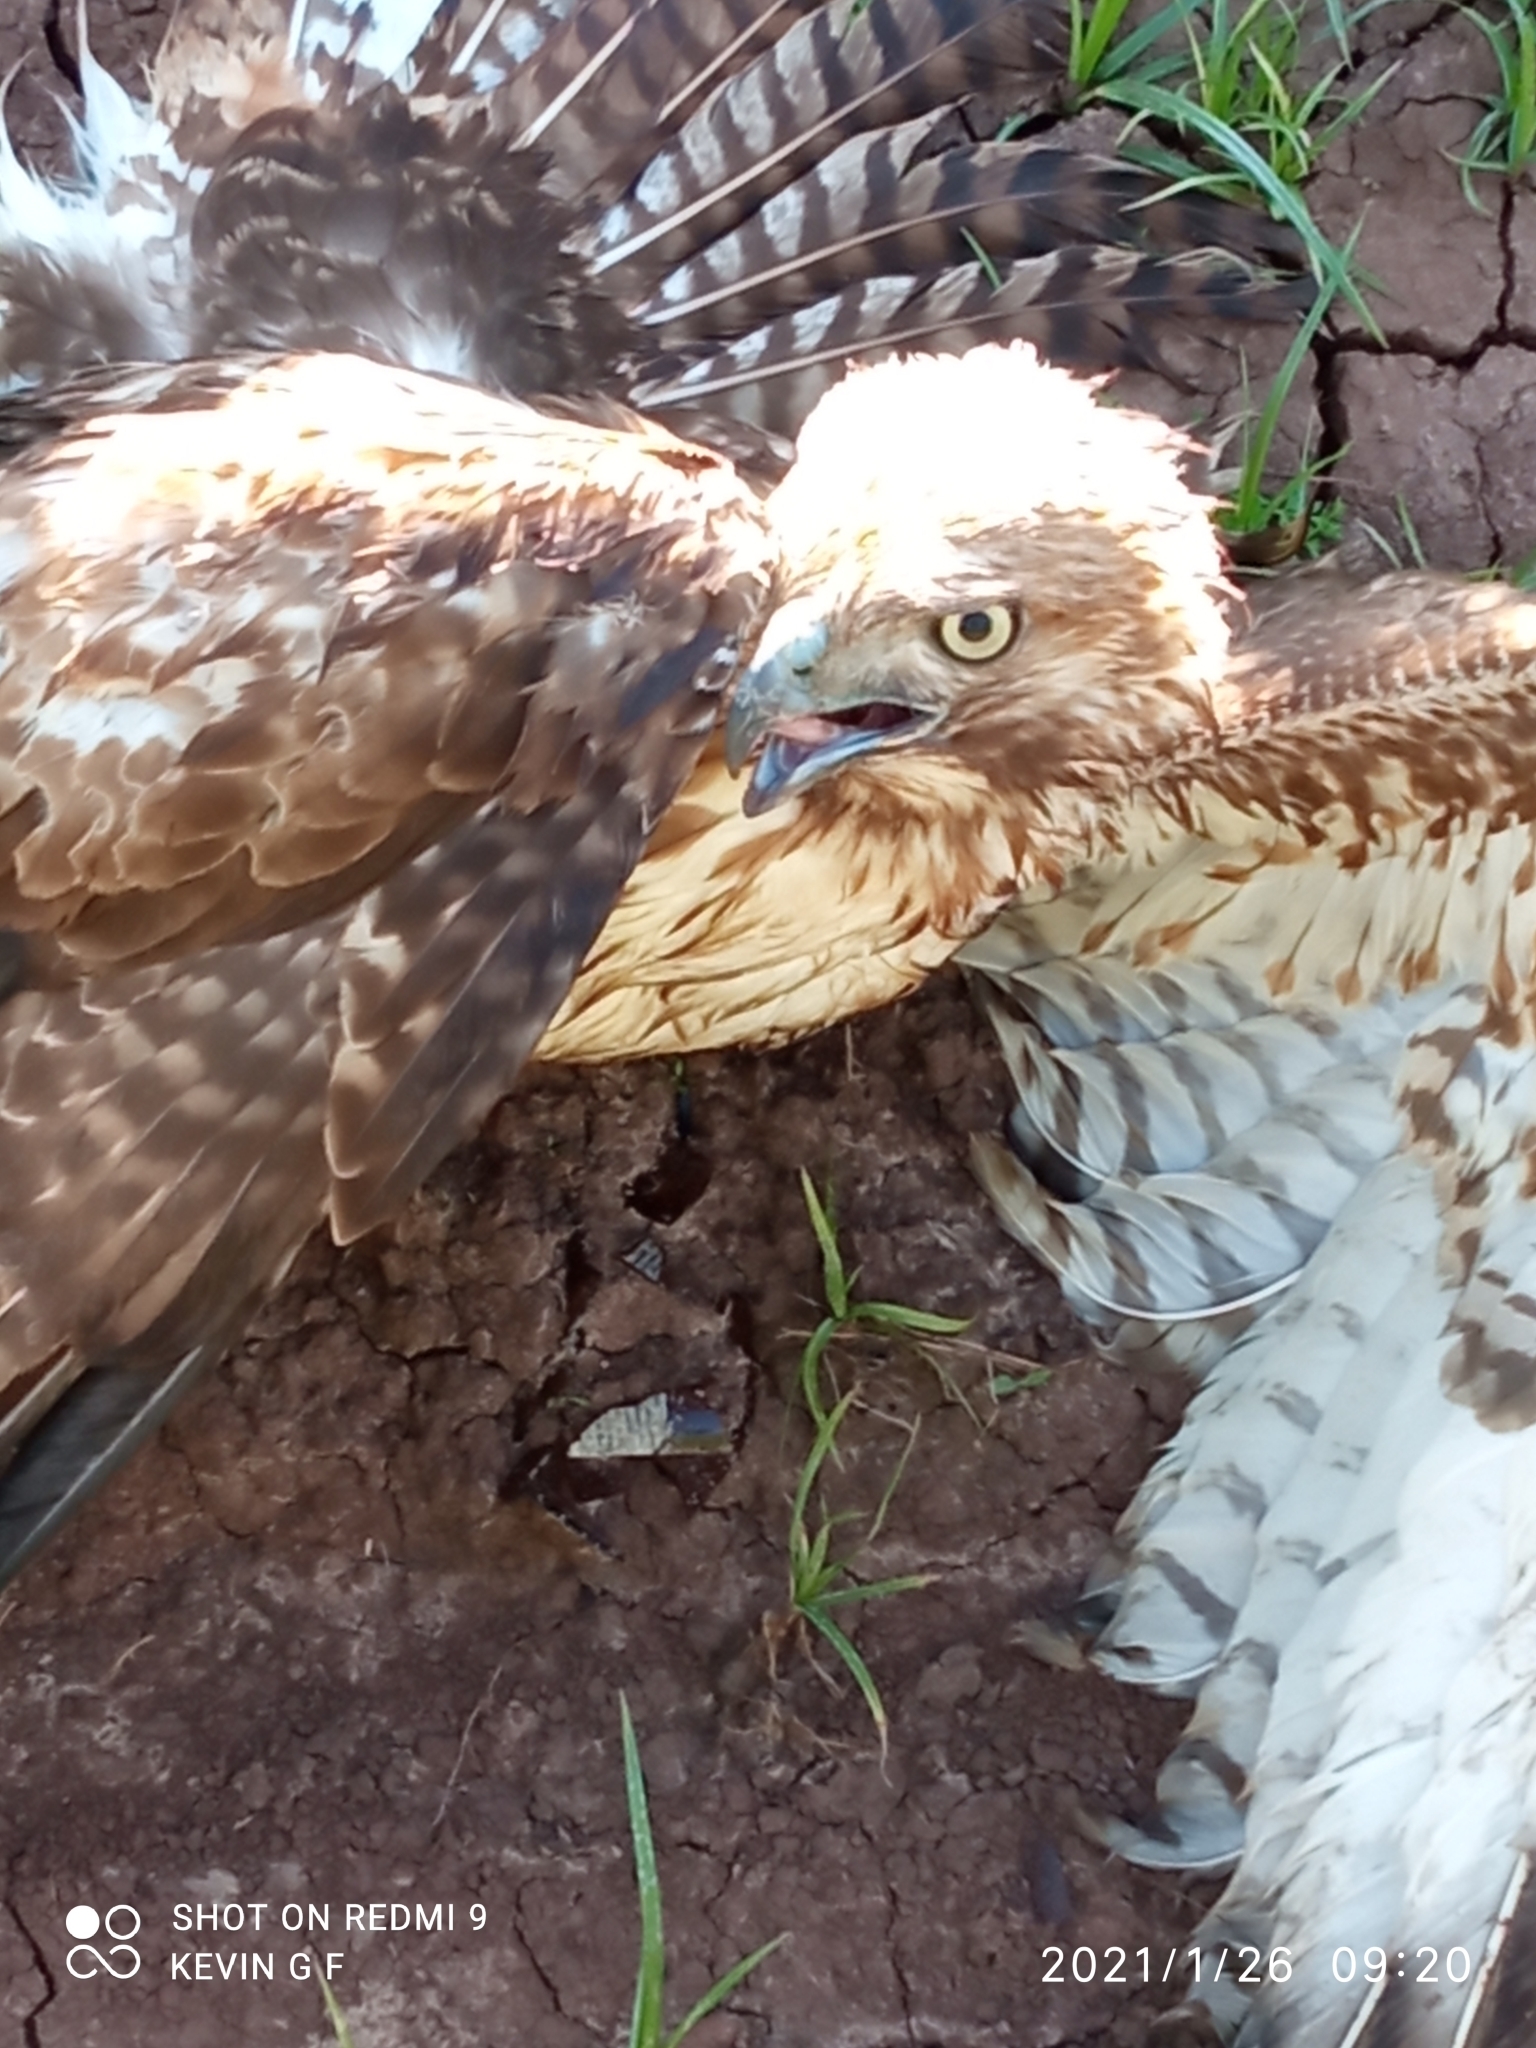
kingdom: Animalia
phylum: Chordata
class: Aves
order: Accipitriformes
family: Accipitridae
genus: Buteo
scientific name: Buteo jamaicensis
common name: Red-tailed hawk
